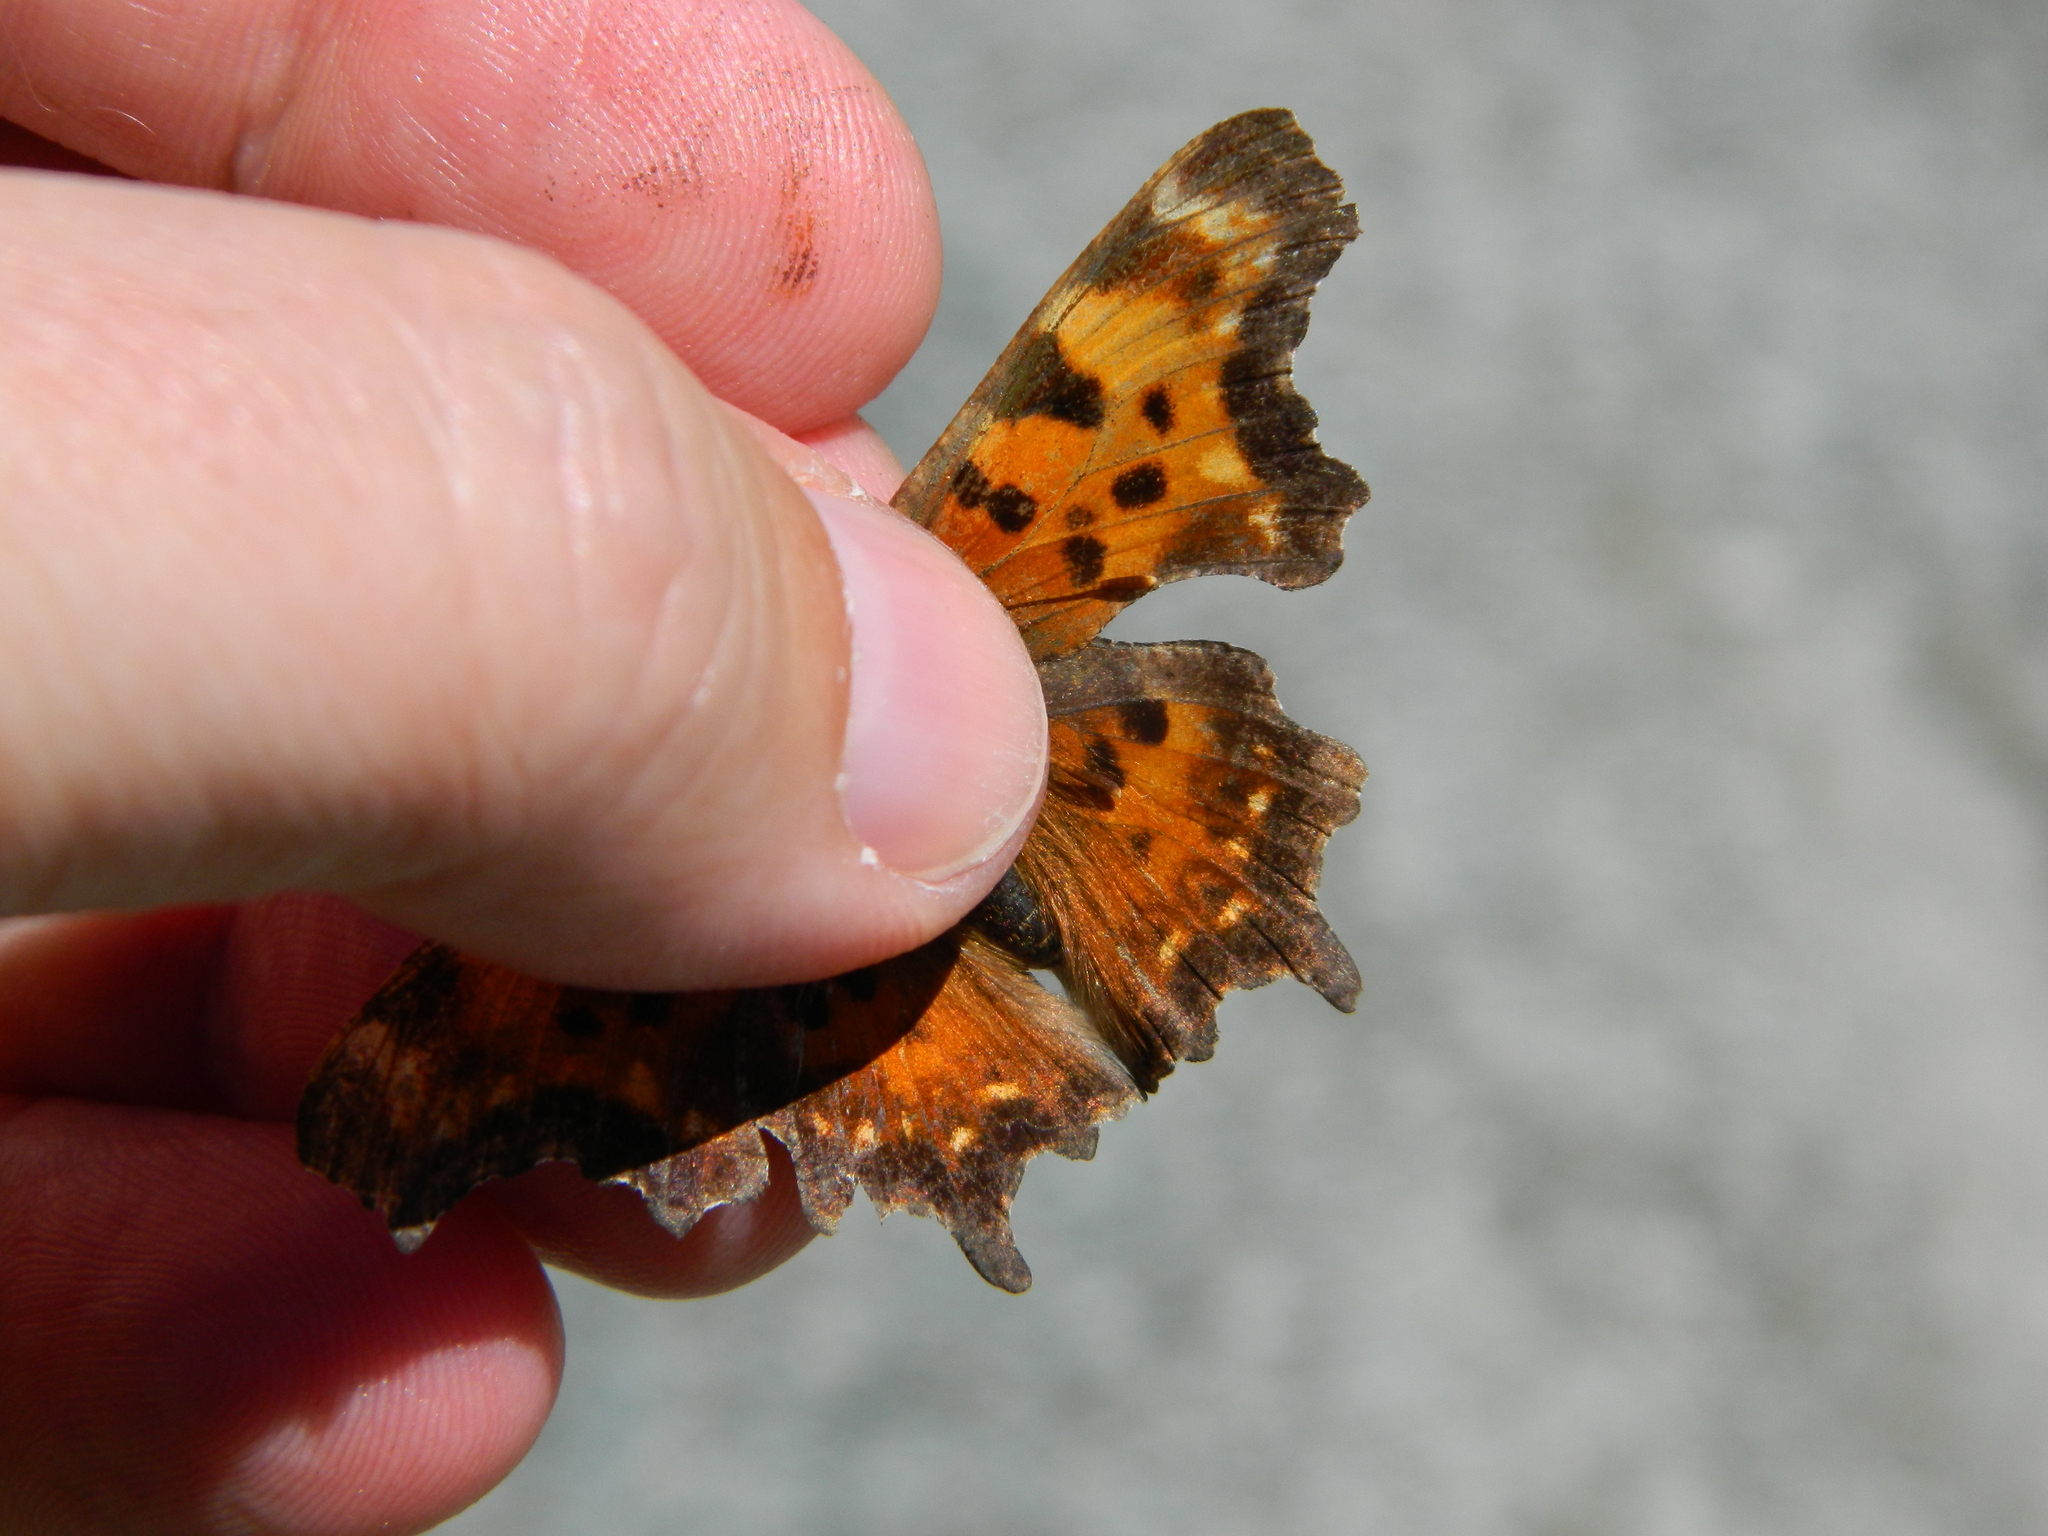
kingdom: Animalia
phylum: Arthropoda
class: Insecta
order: Lepidoptera
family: Nymphalidae
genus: Polygonia
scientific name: Polygonia faunus
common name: Green comma
